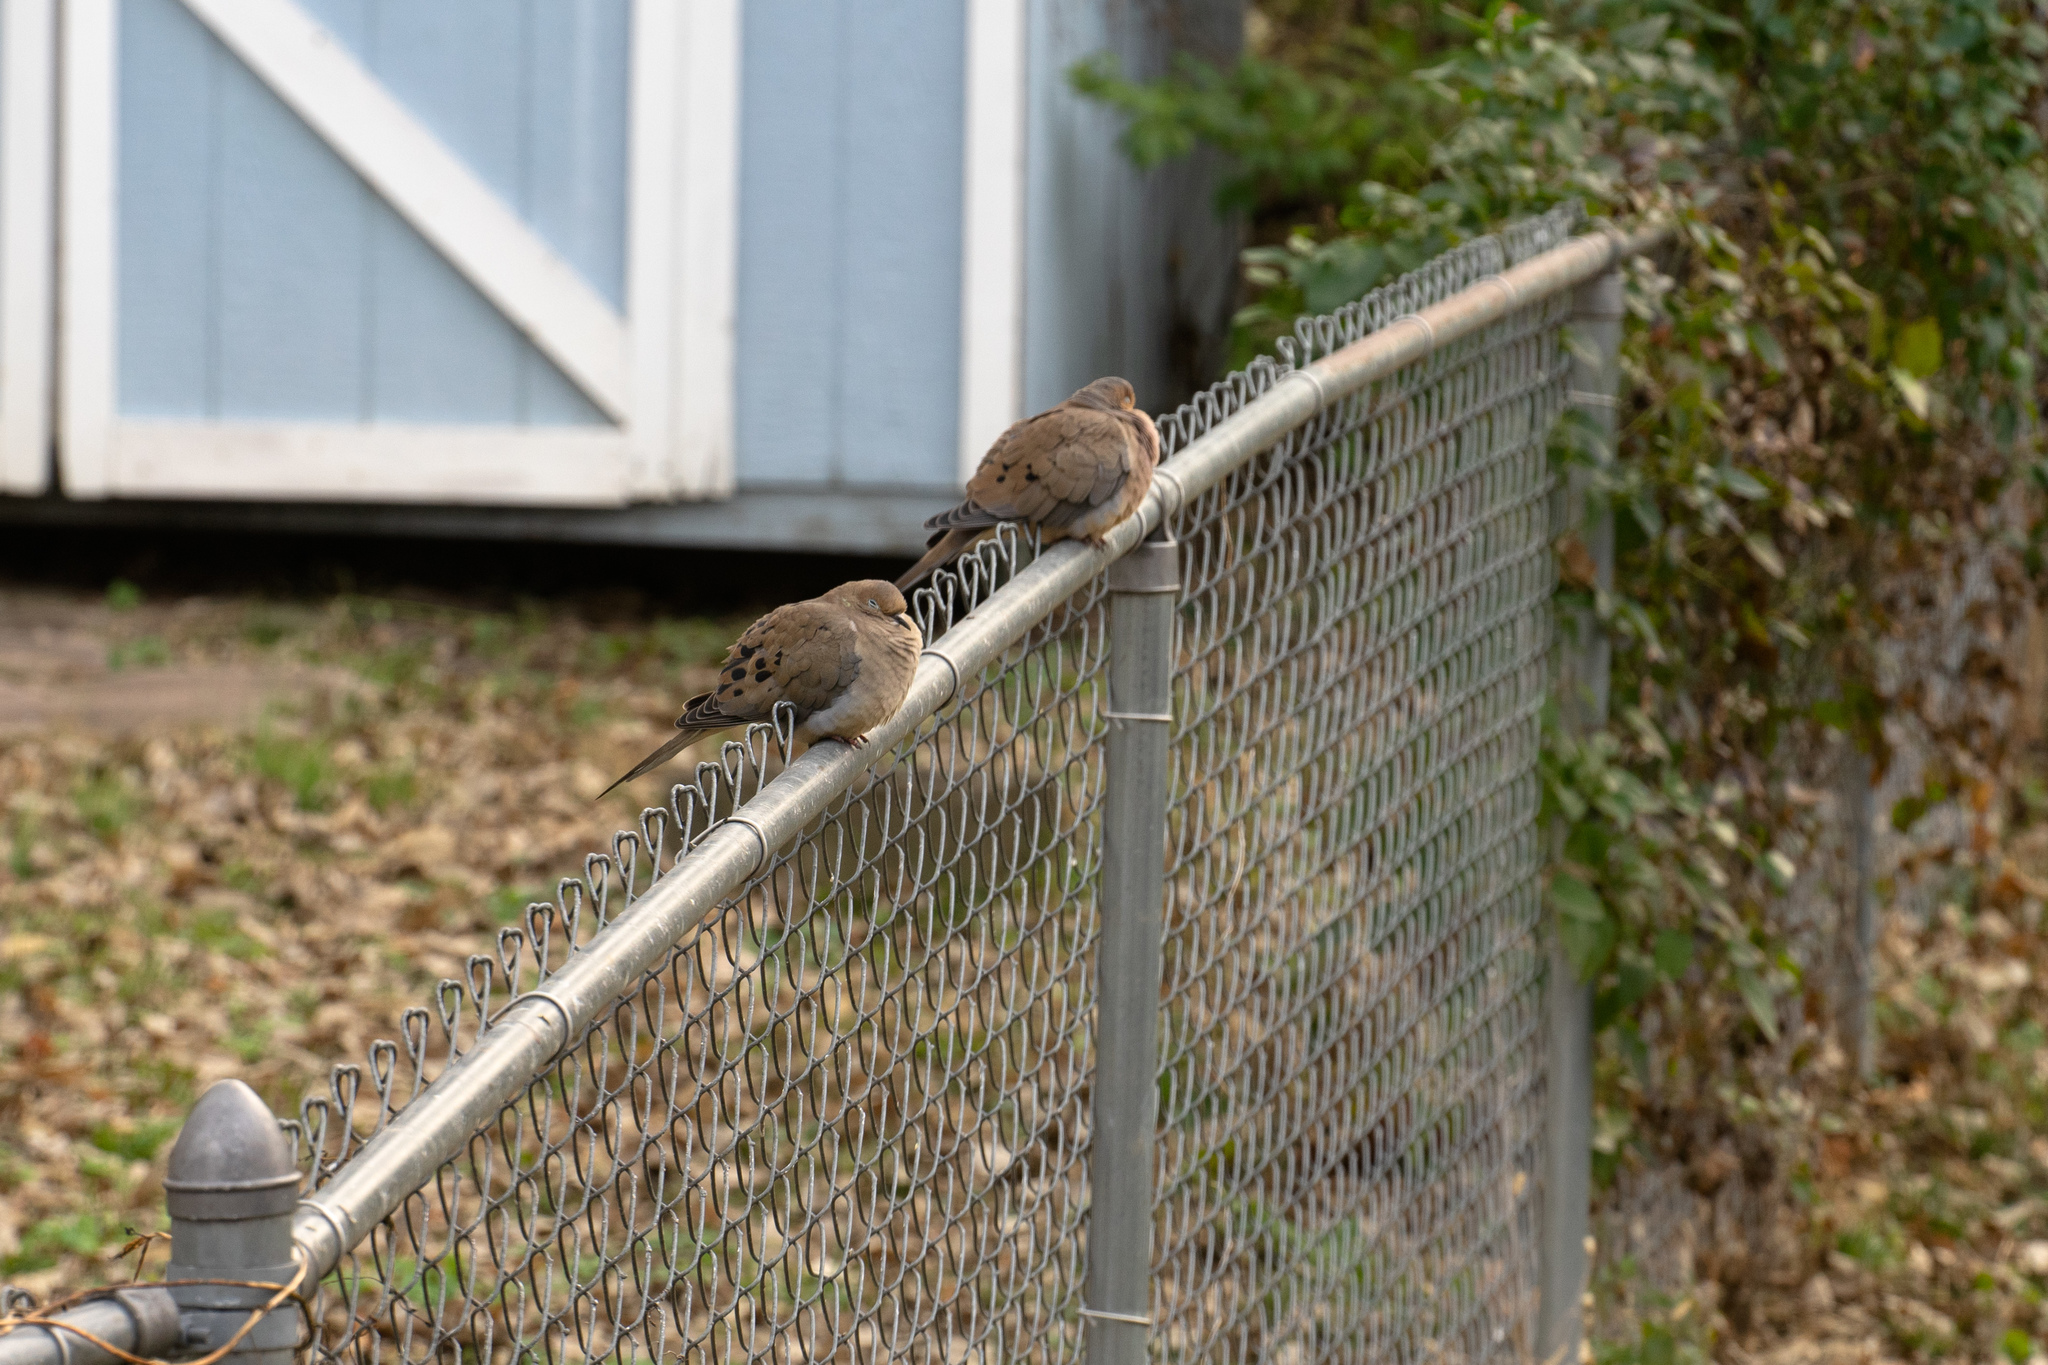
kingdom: Animalia
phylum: Chordata
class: Aves
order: Columbiformes
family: Columbidae
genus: Zenaida
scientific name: Zenaida macroura
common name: Mourning dove
